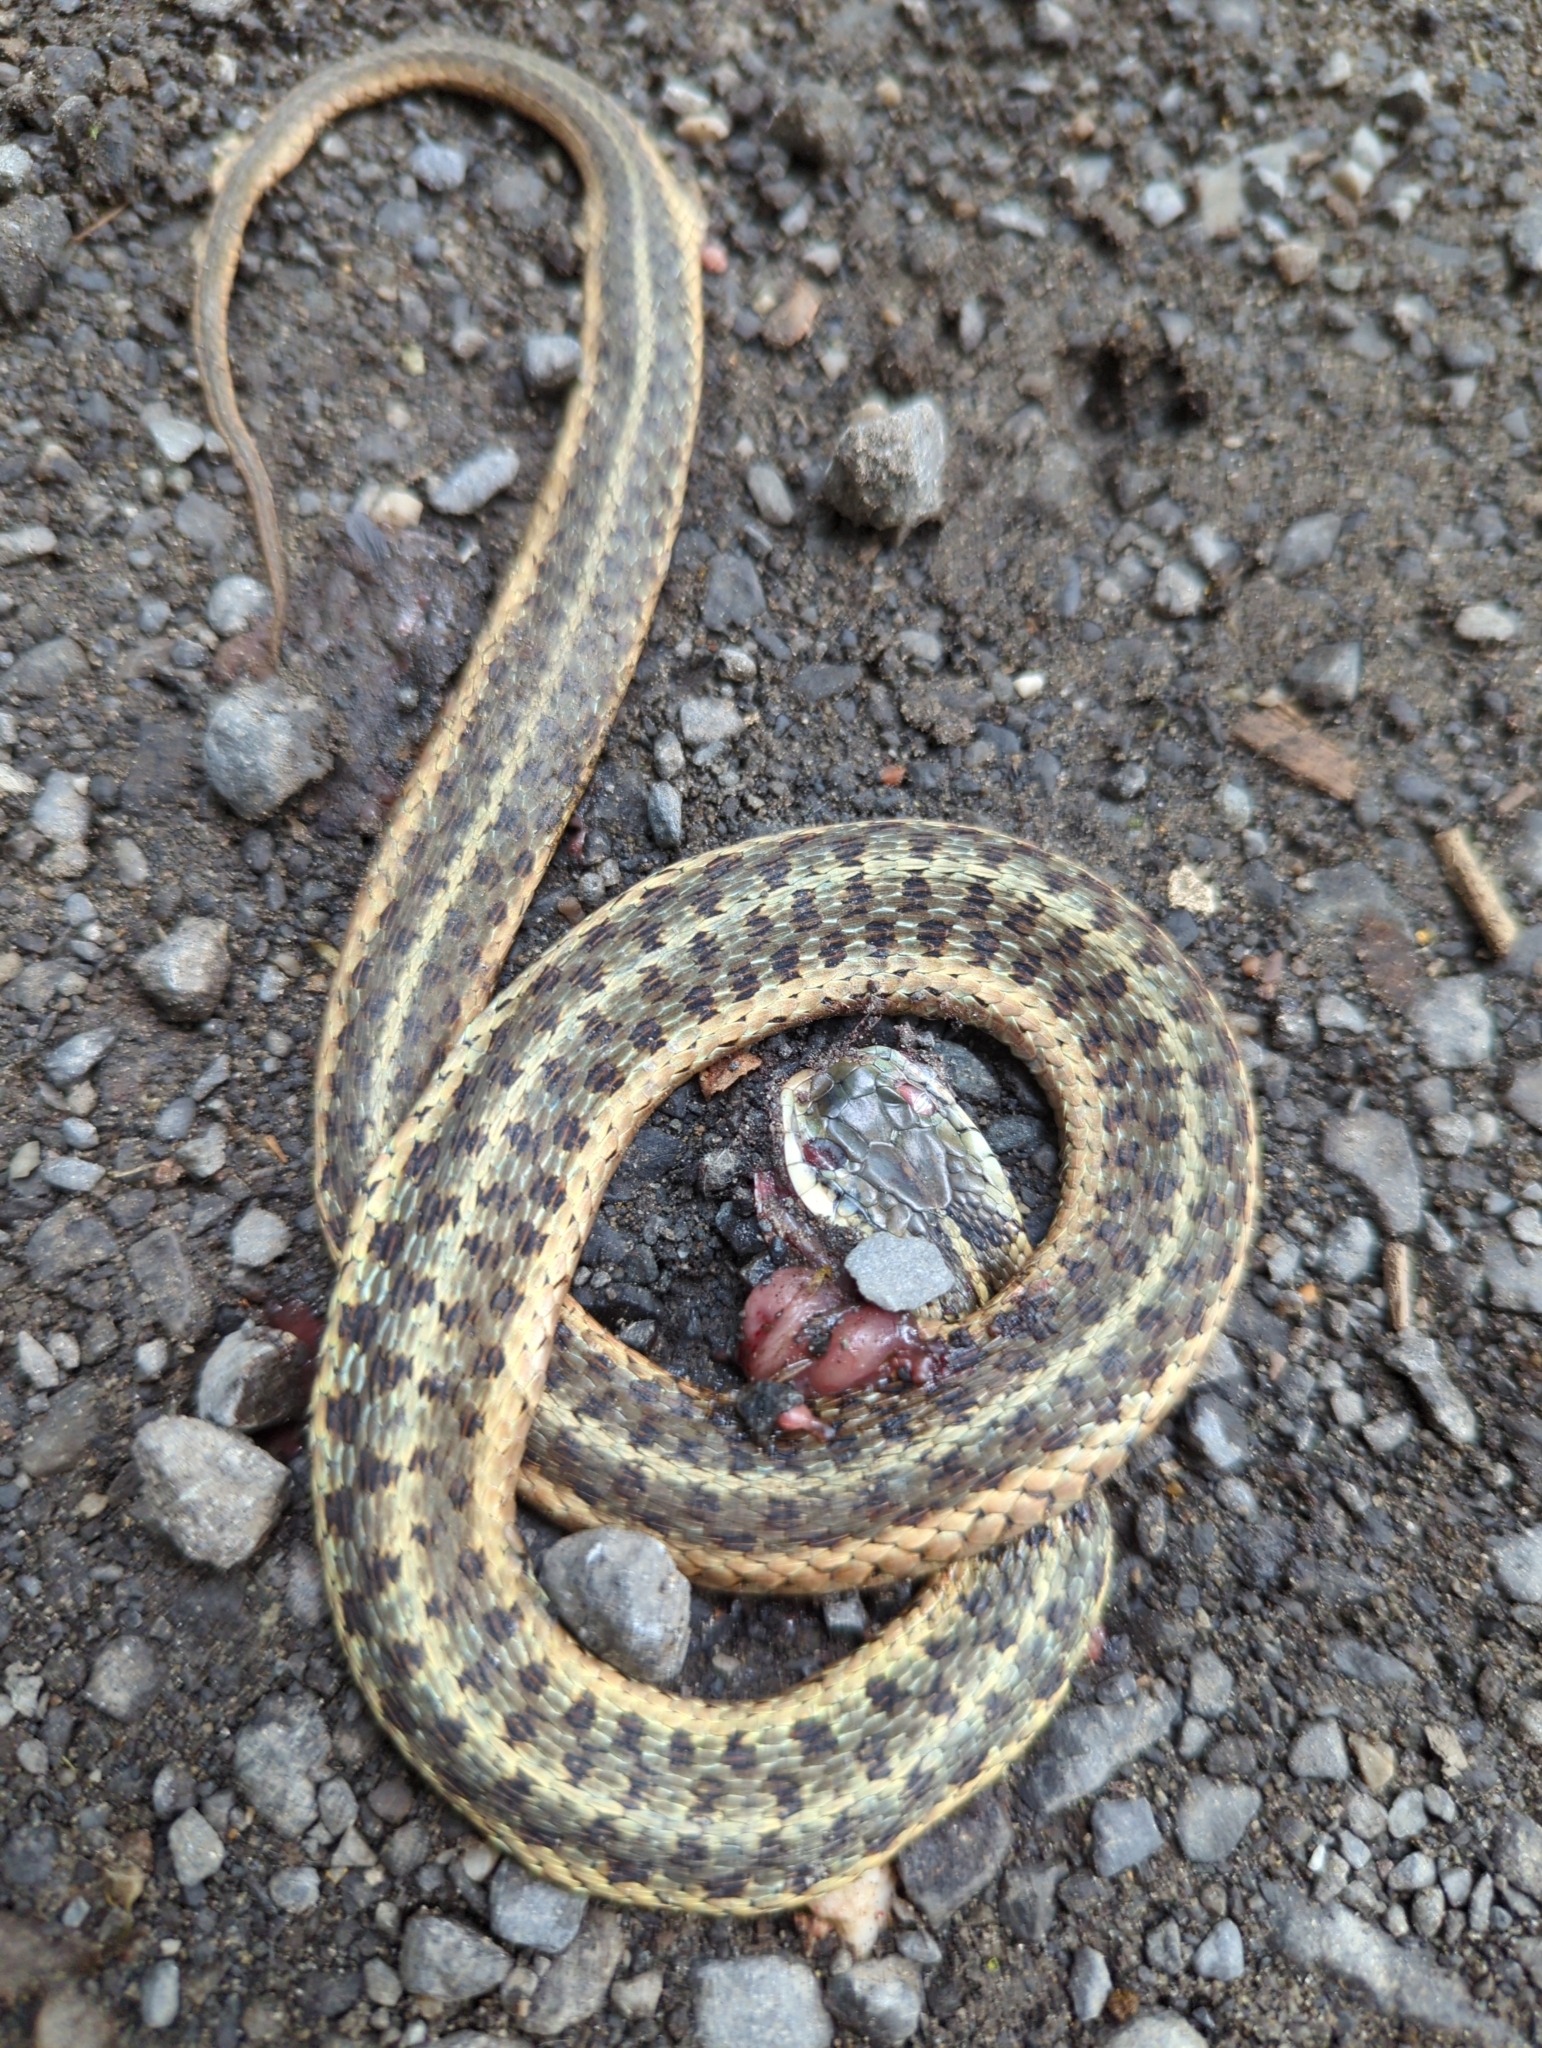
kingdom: Animalia
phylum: Chordata
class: Squamata
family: Colubridae
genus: Thamnophis
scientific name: Thamnophis sirtalis
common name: Common garter snake
